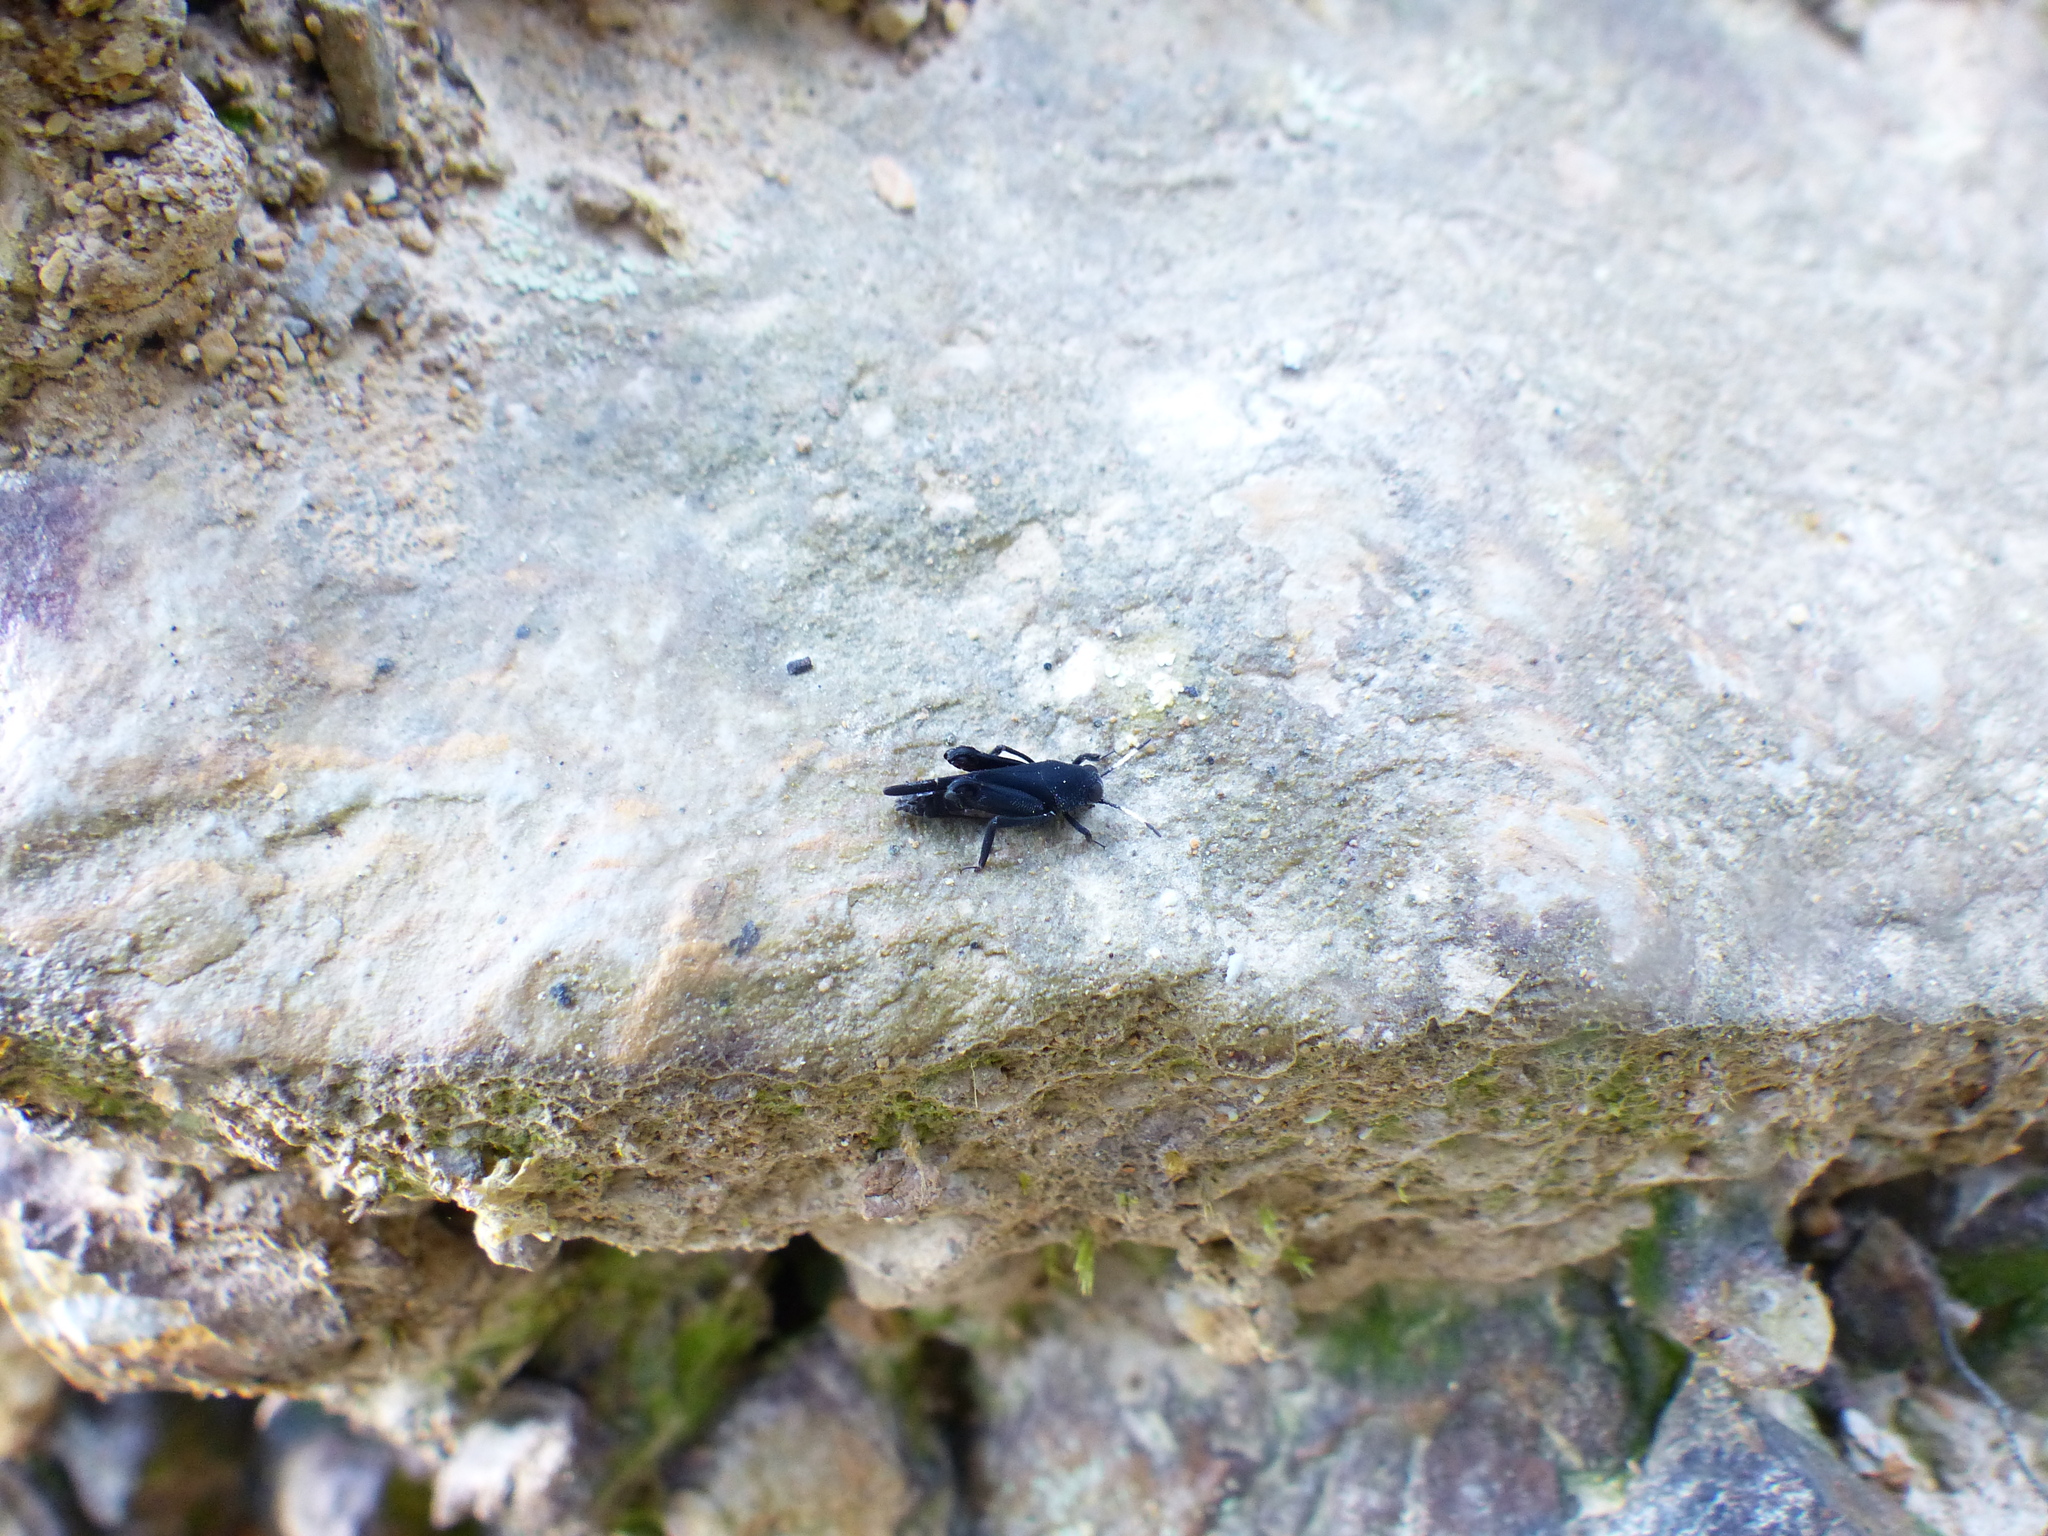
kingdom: Animalia
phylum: Arthropoda
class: Insecta
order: Orthoptera
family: Ripipterygidae
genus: Ripipteryx
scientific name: Ripipteryx forceps
